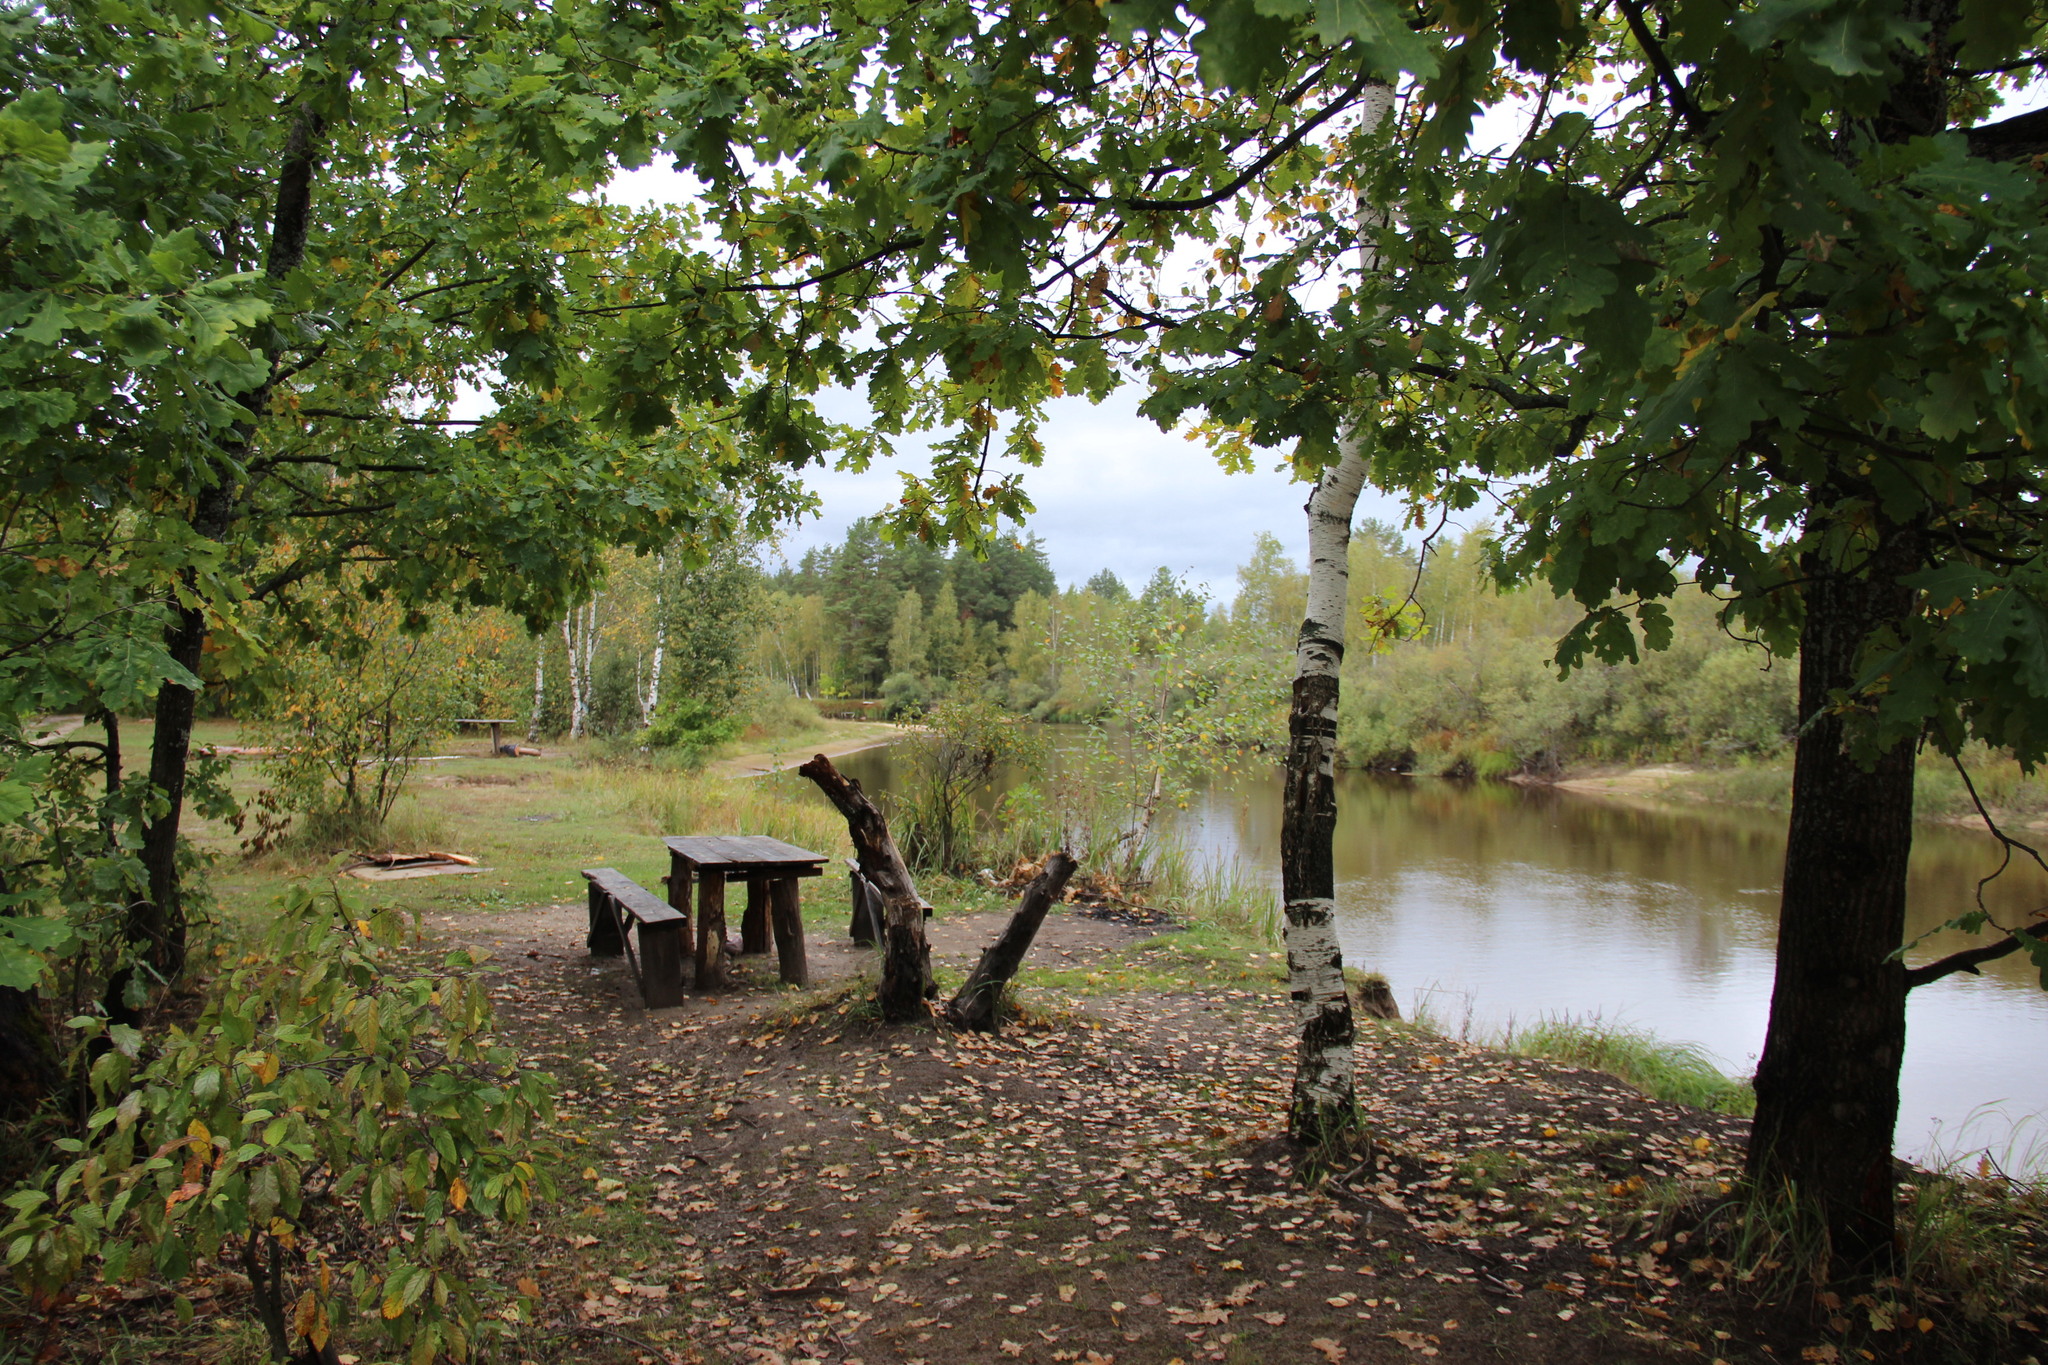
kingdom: Plantae
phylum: Tracheophyta
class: Magnoliopsida
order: Fagales
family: Fagaceae
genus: Quercus
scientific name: Quercus robur
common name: Pedunculate oak
